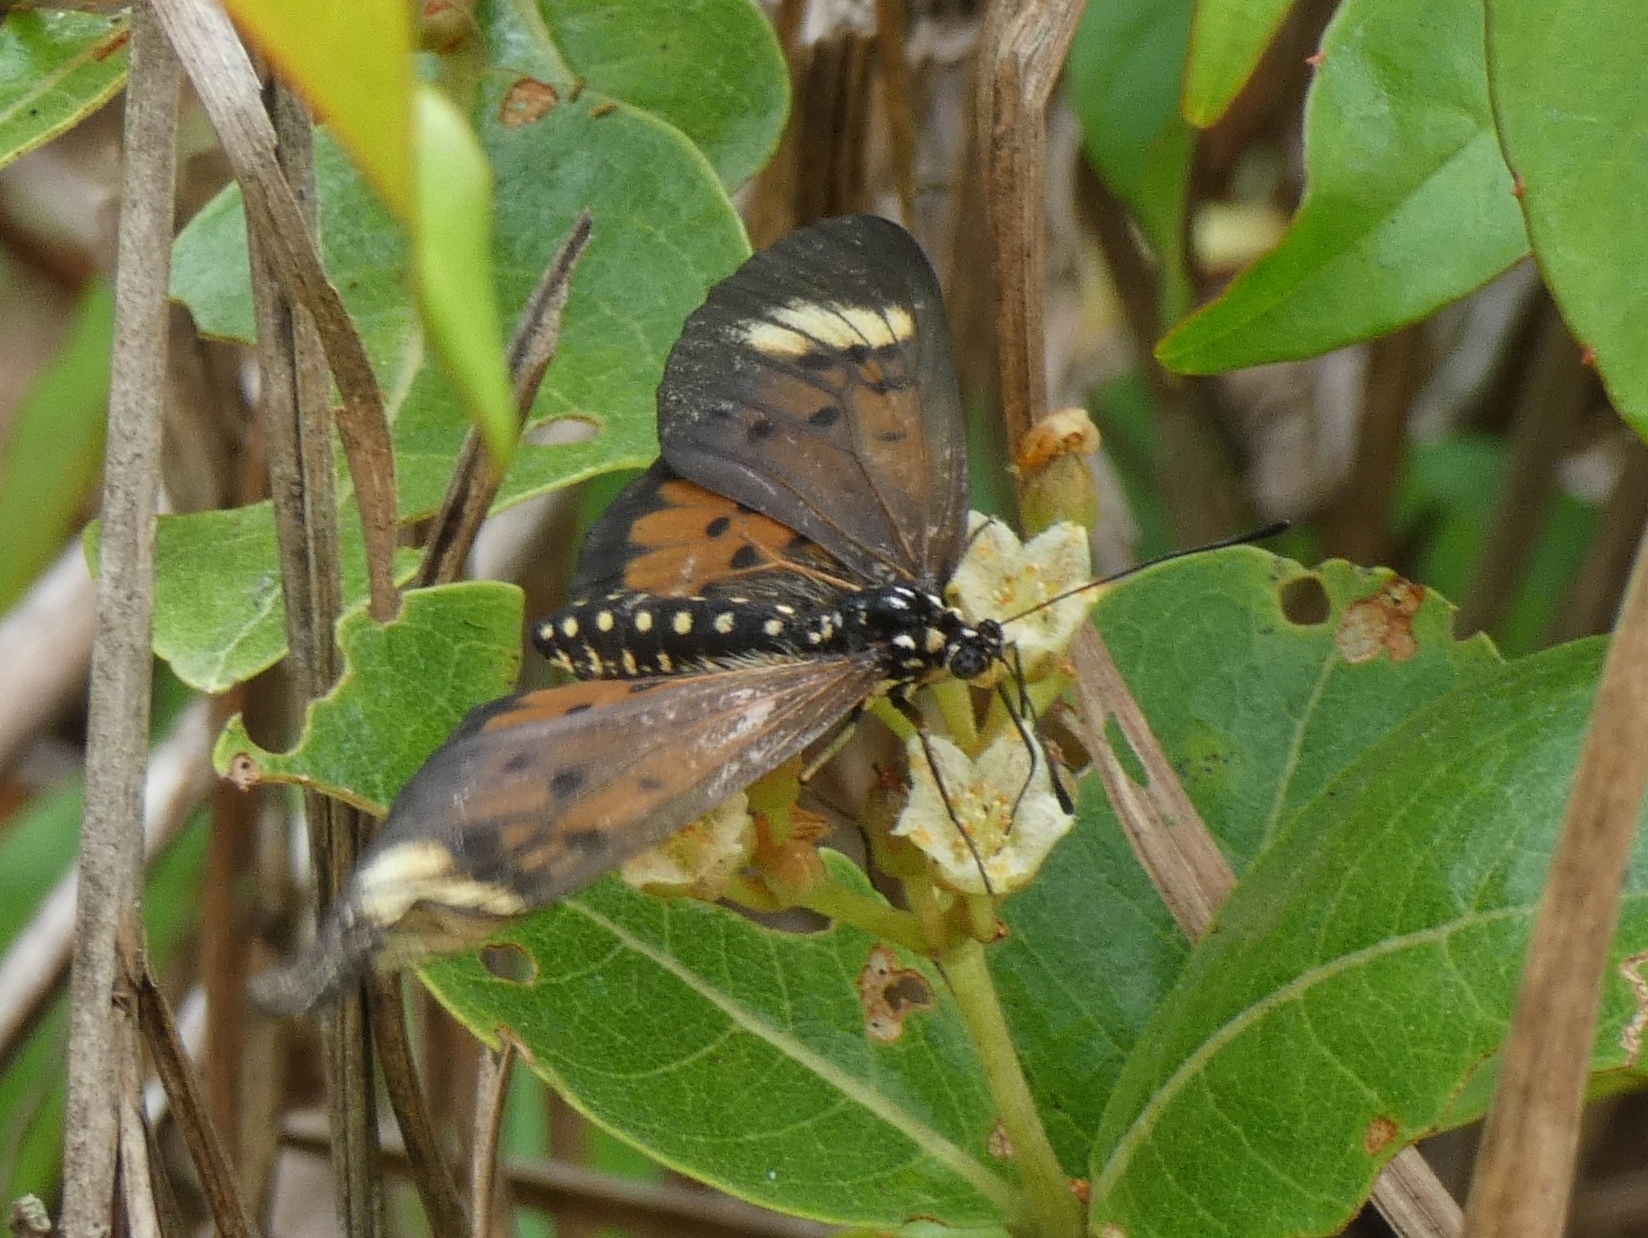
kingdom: Animalia
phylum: Arthropoda
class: Insecta
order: Lepidoptera
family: Nymphalidae
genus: Rubraea
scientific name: Rubraea
